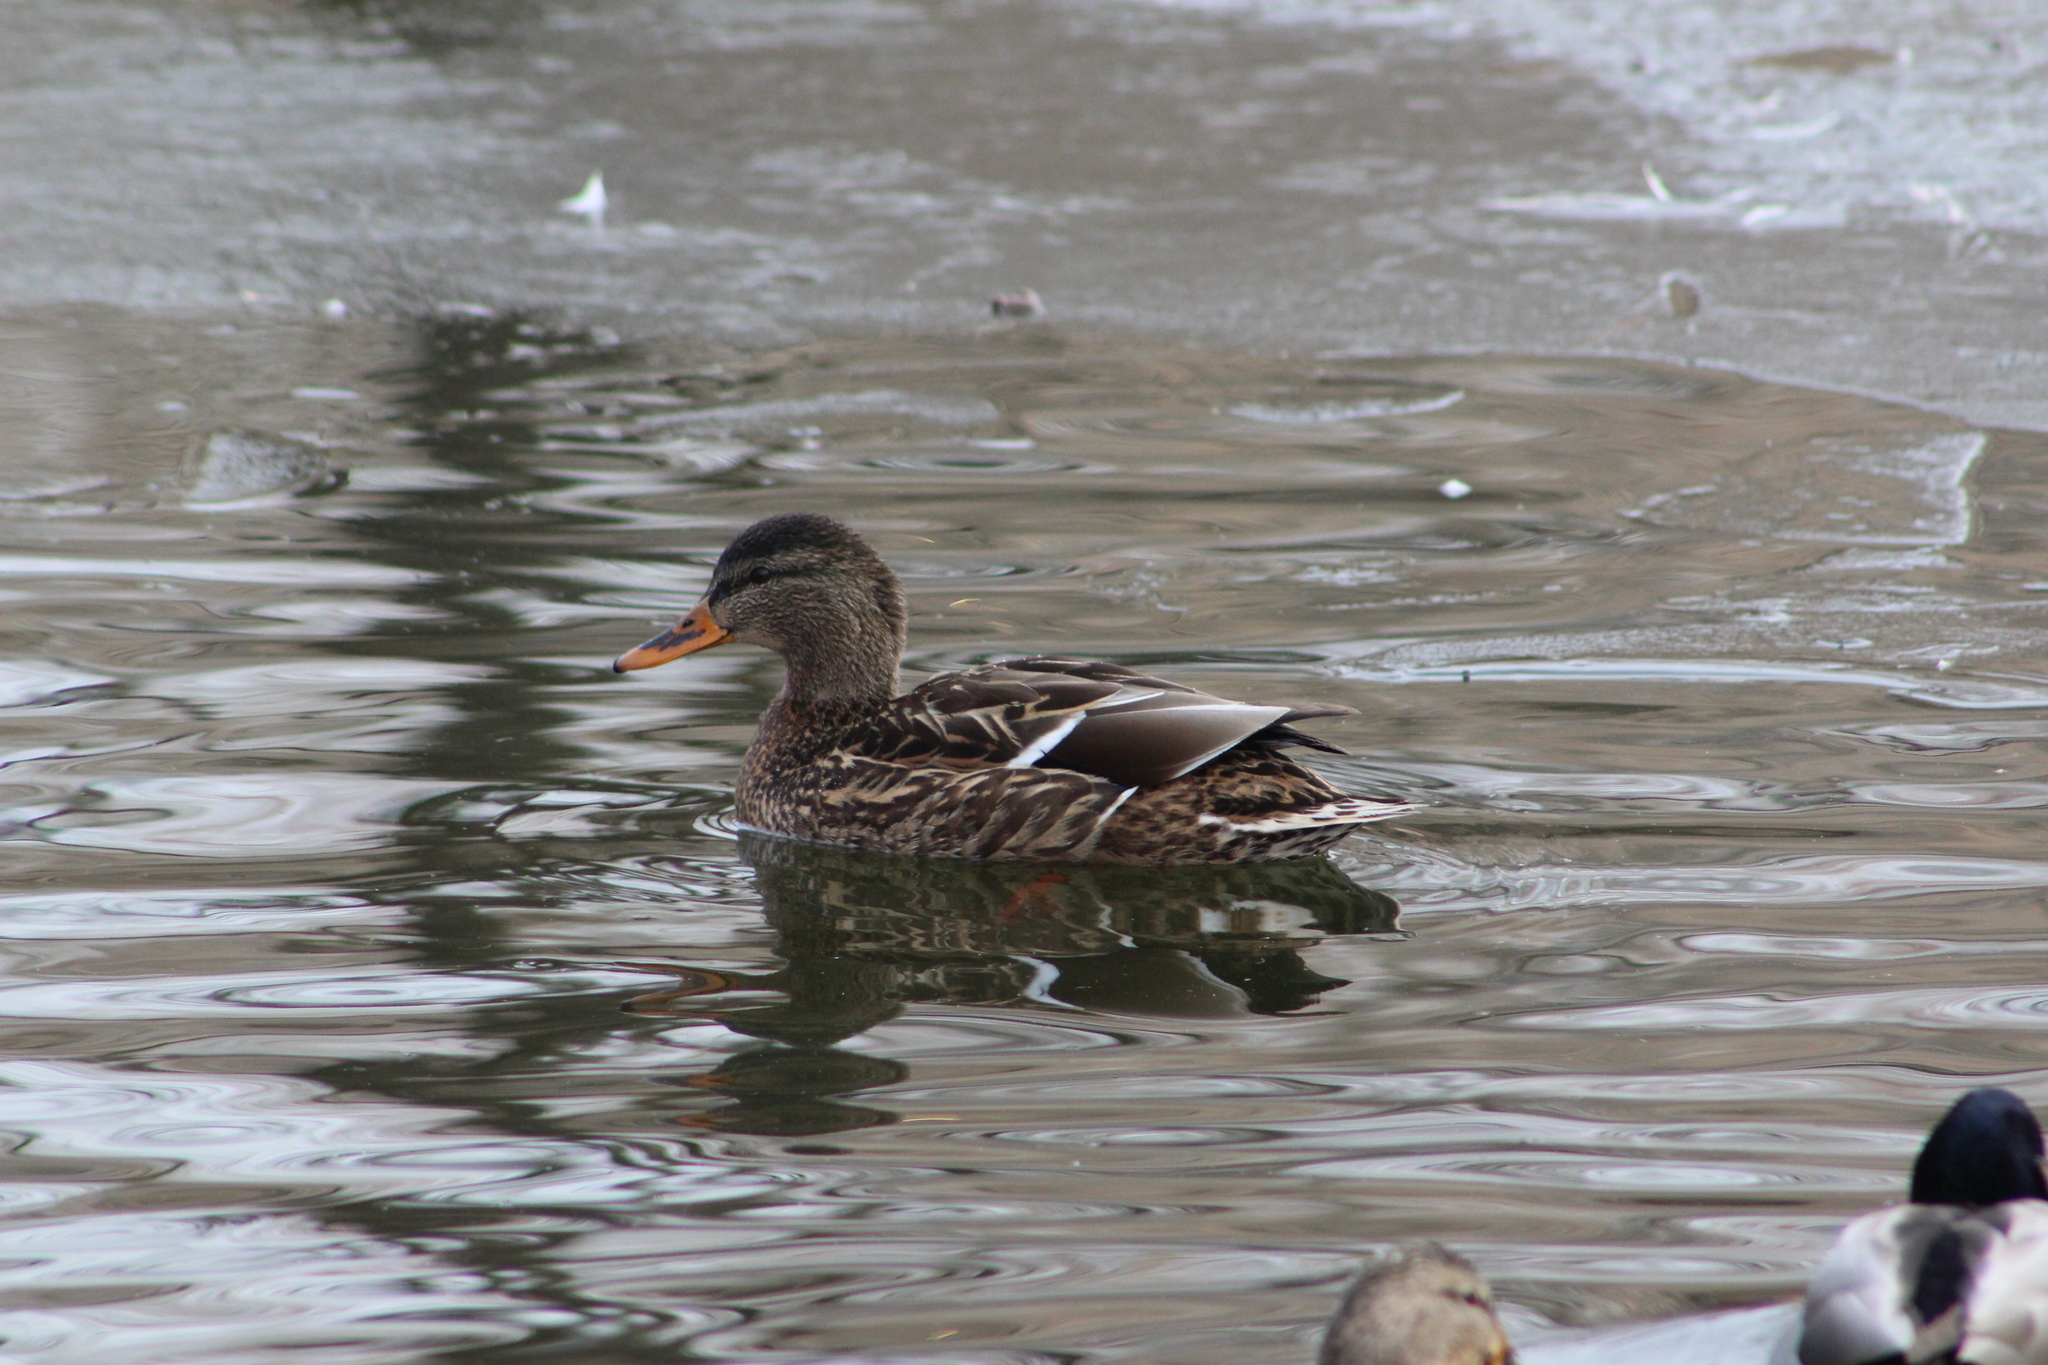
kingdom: Animalia
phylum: Chordata
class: Aves
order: Anseriformes
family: Anatidae
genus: Anas
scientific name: Anas platyrhynchos
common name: Mallard
